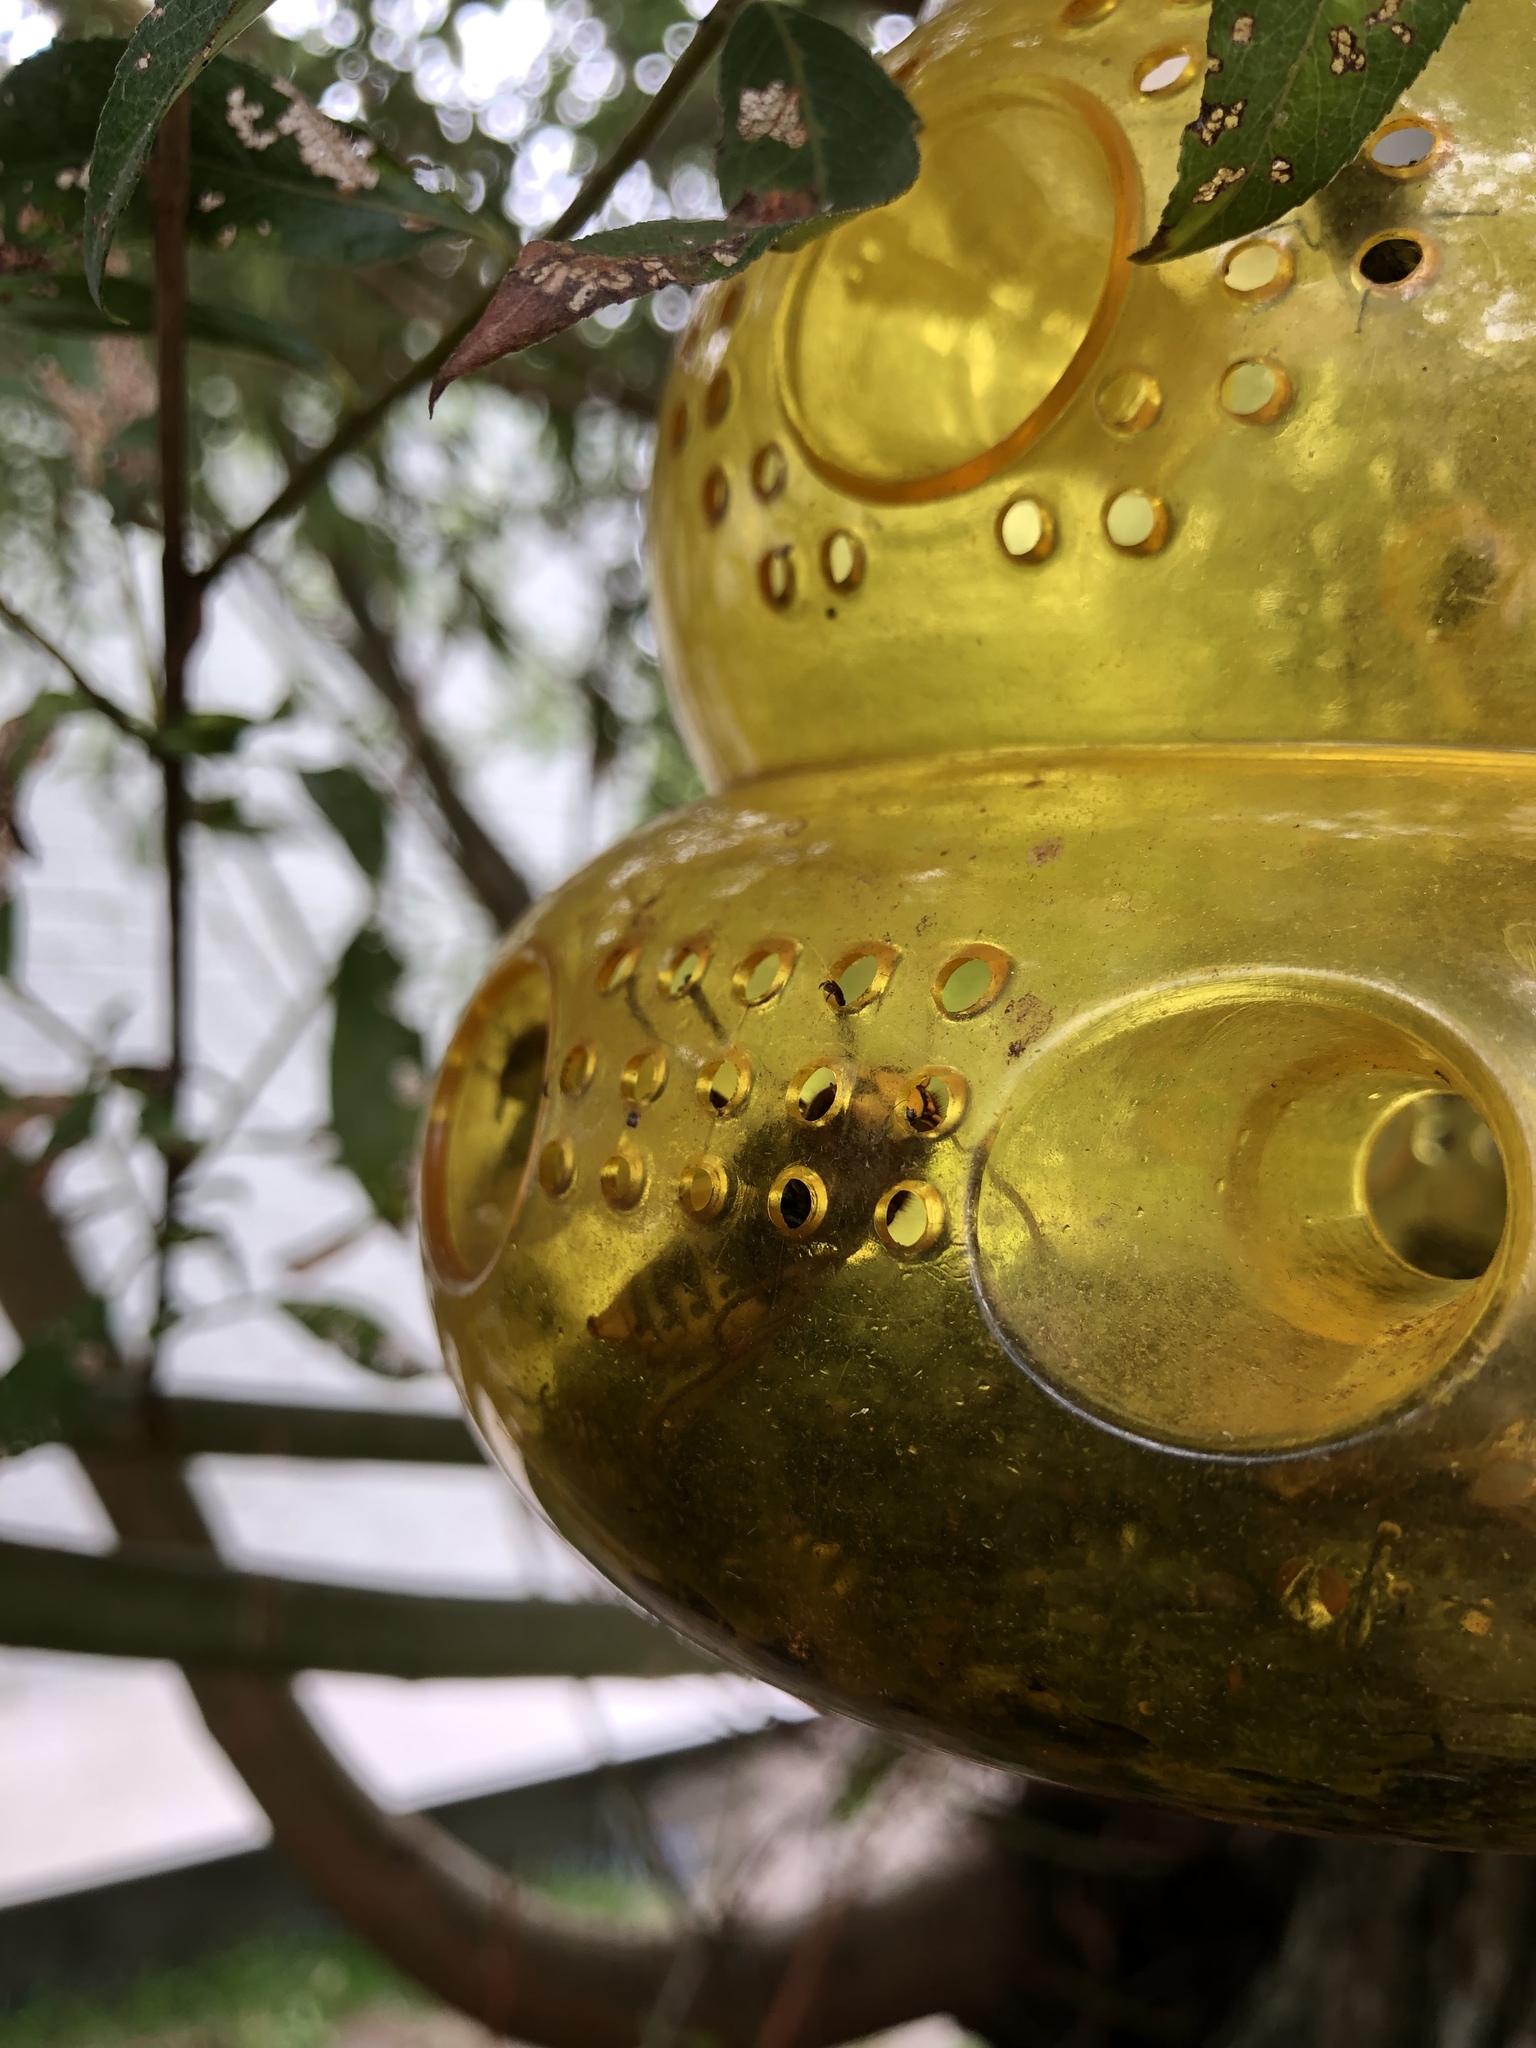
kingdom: Animalia
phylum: Arthropoda
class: Insecta
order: Hymenoptera
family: Vespidae
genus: Vespa
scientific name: Vespa crabro
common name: Hornet
